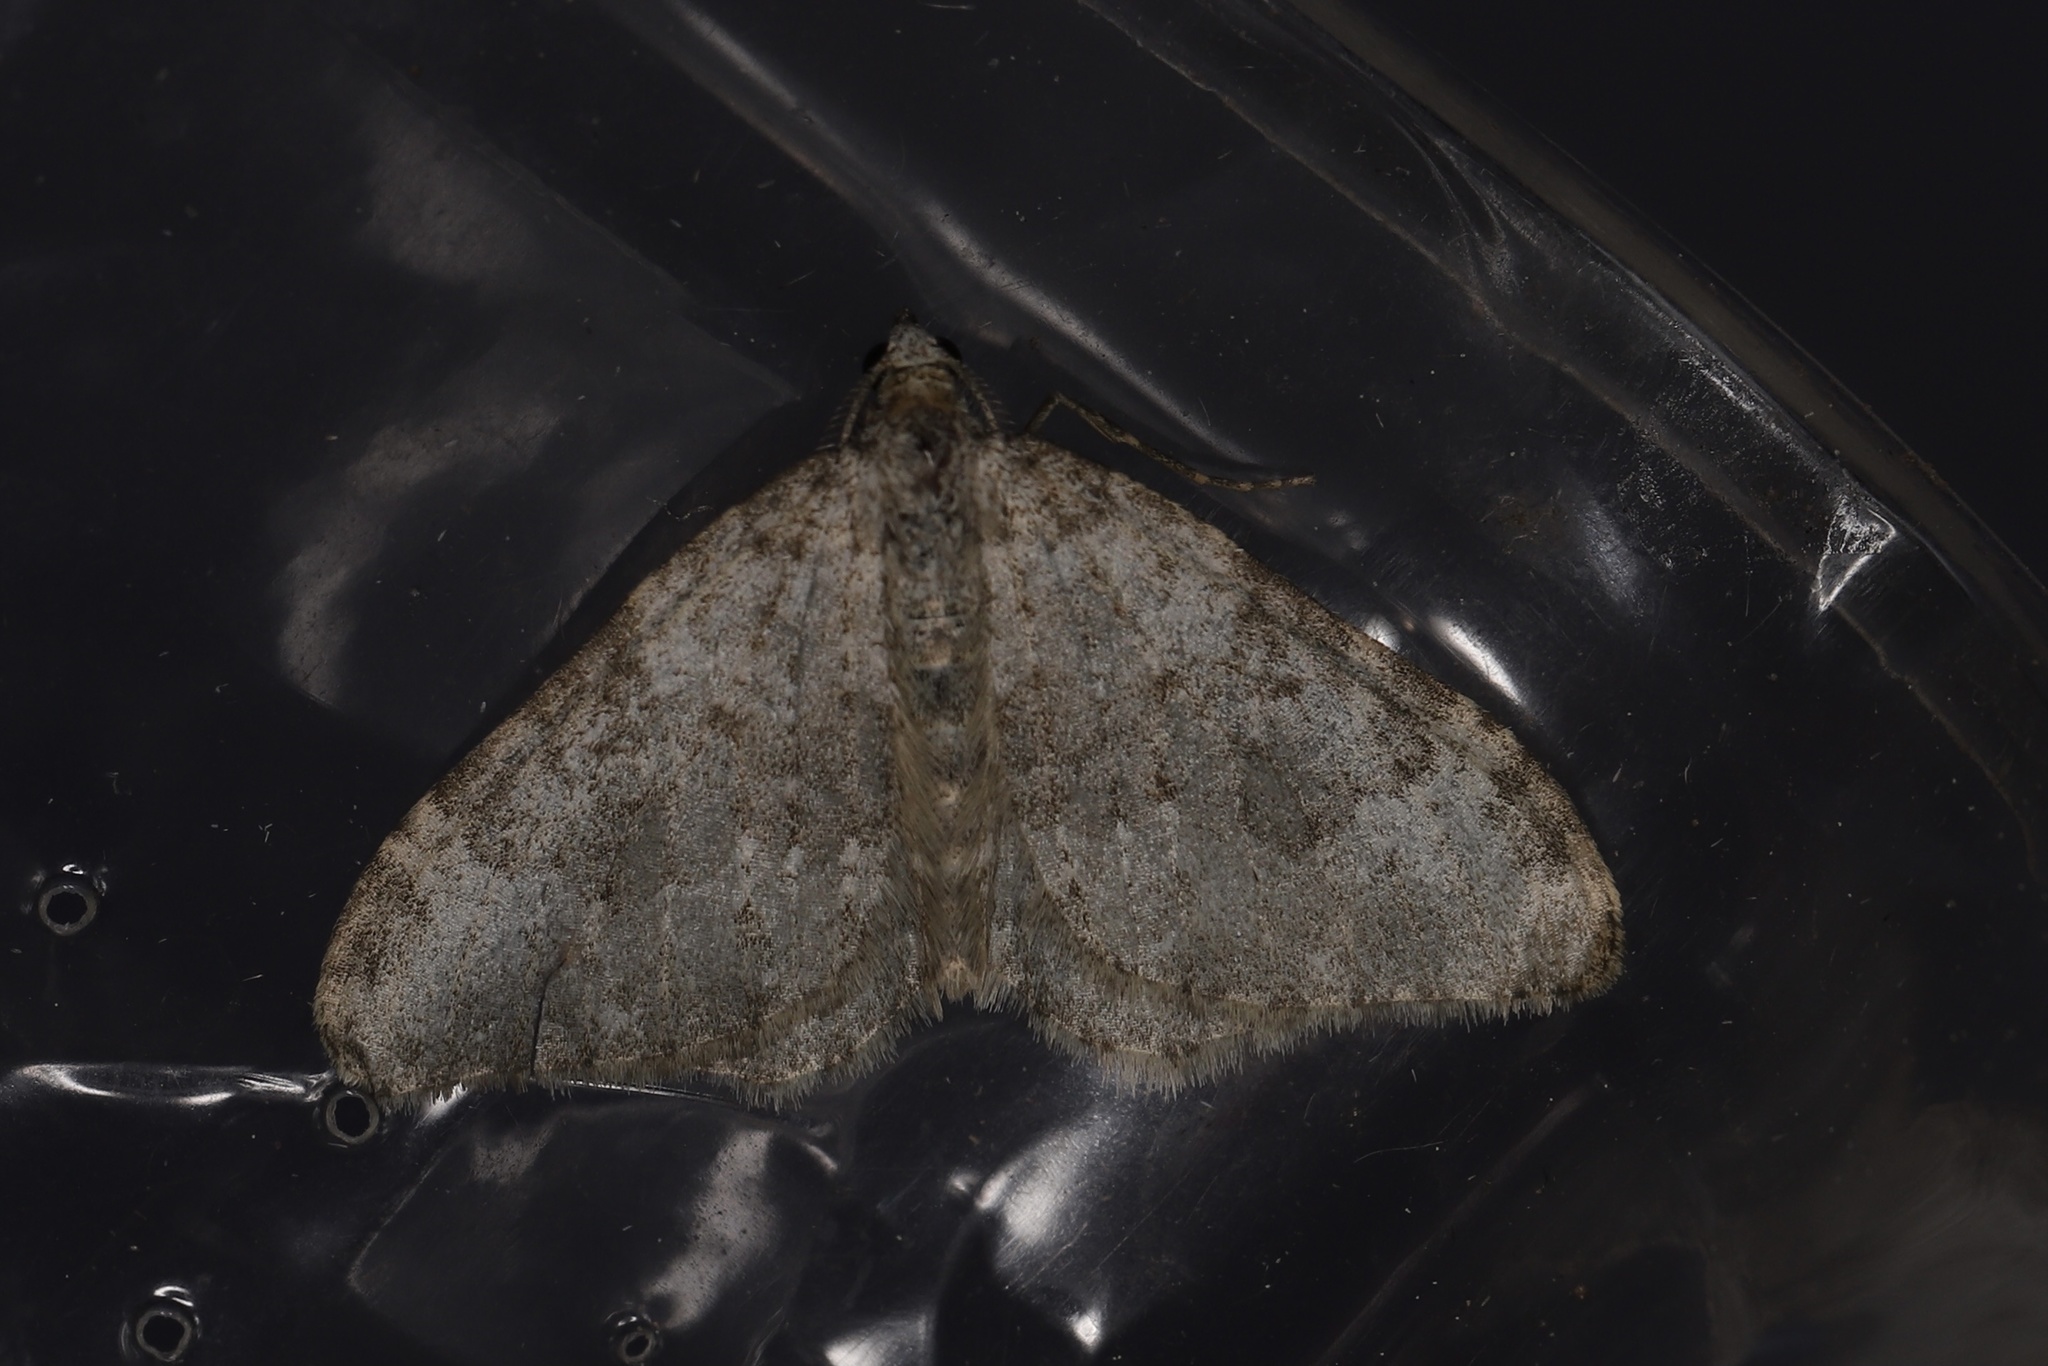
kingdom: Animalia
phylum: Arthropoda
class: Insecta
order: Lepidoptera
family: Geometridae
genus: Nebula
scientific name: Nebula salicata
